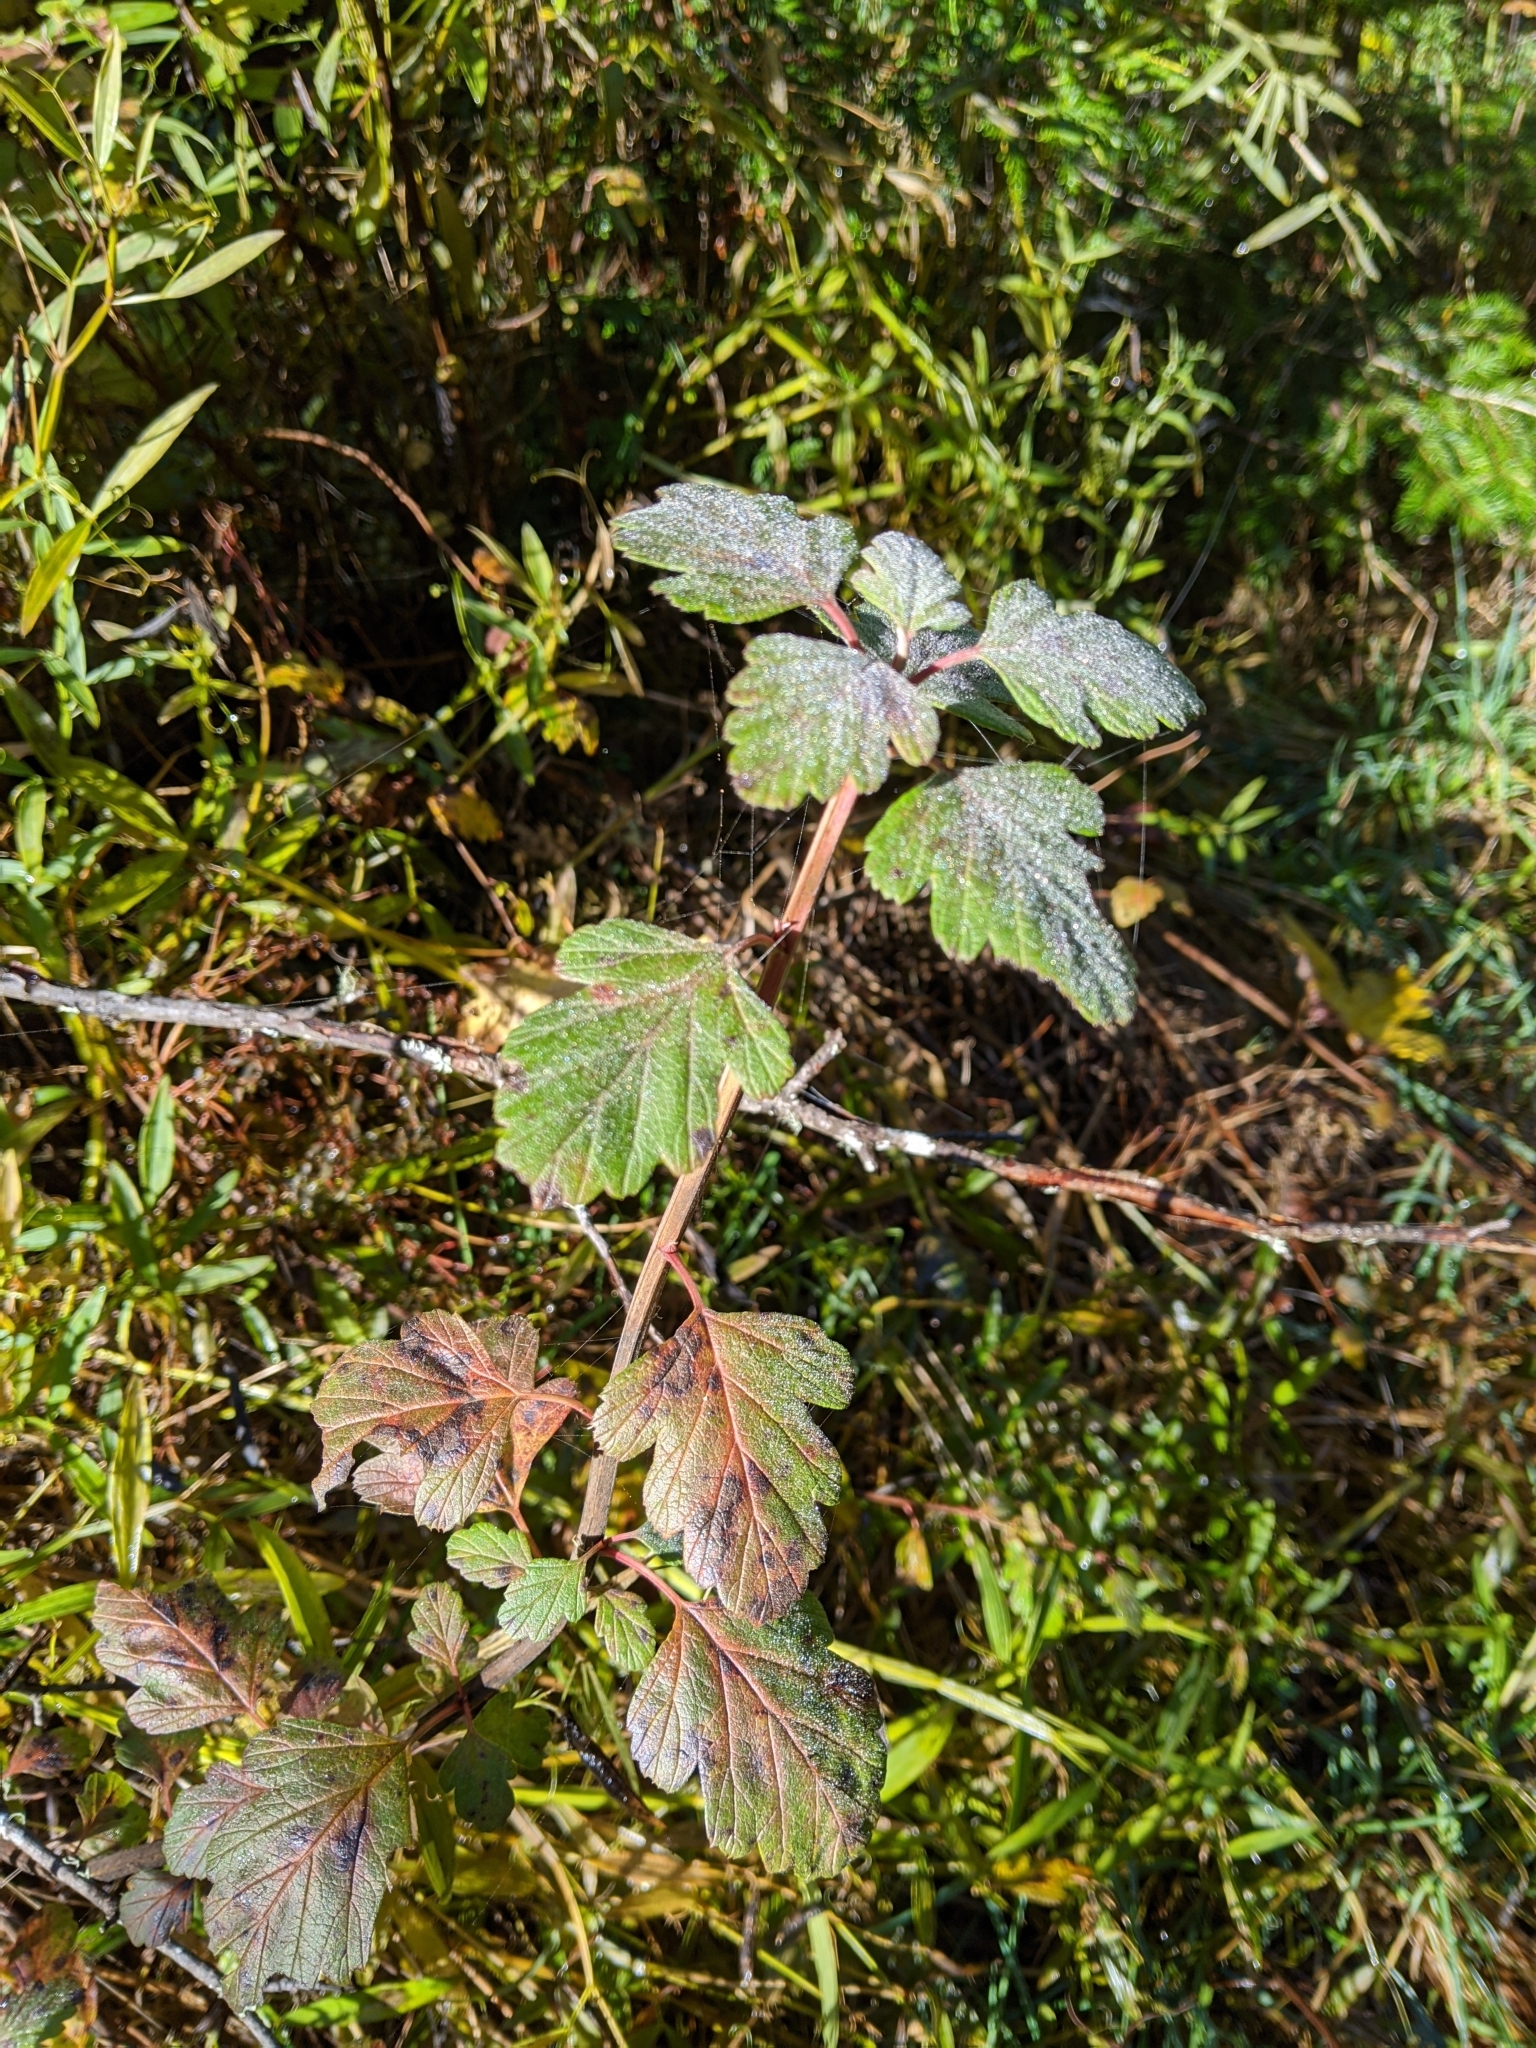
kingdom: Plantae
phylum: Tracheophyta
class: Magnoliopsida
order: Rosales
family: Rosaceae
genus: Holodiscus
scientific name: Holodiscus discolor
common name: Oceanspray
